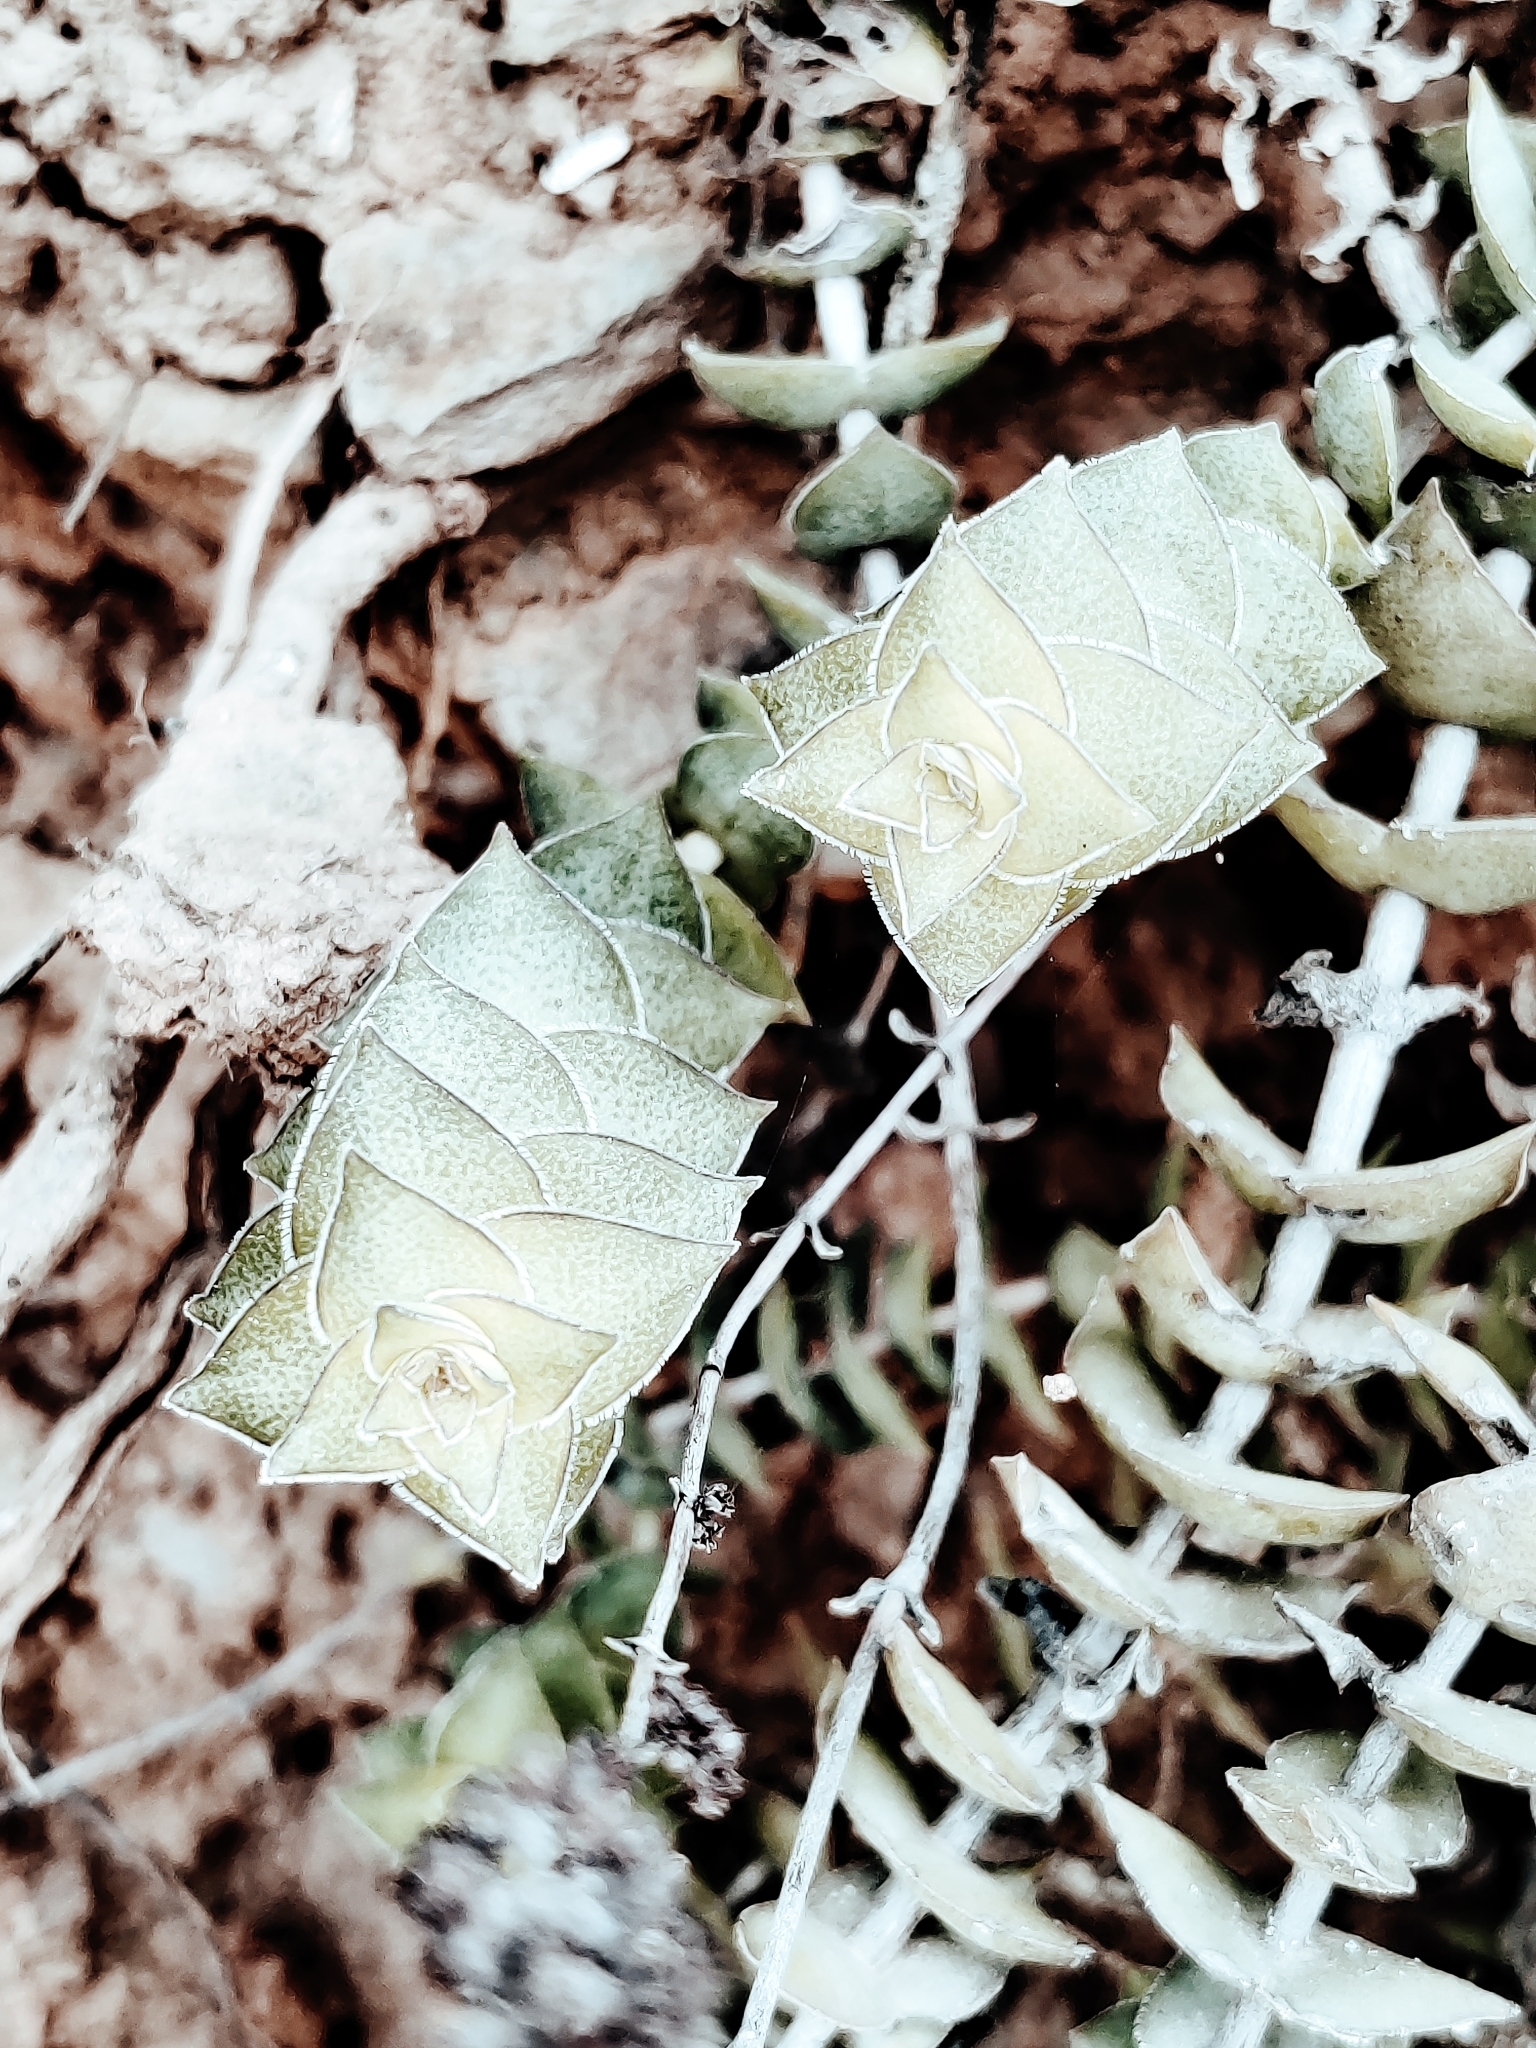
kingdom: Plantae
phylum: Tracheophyta
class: Magnoliopsida
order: Saxifragales
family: Crassulaceae
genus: Crassula
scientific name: Crassula perforata
